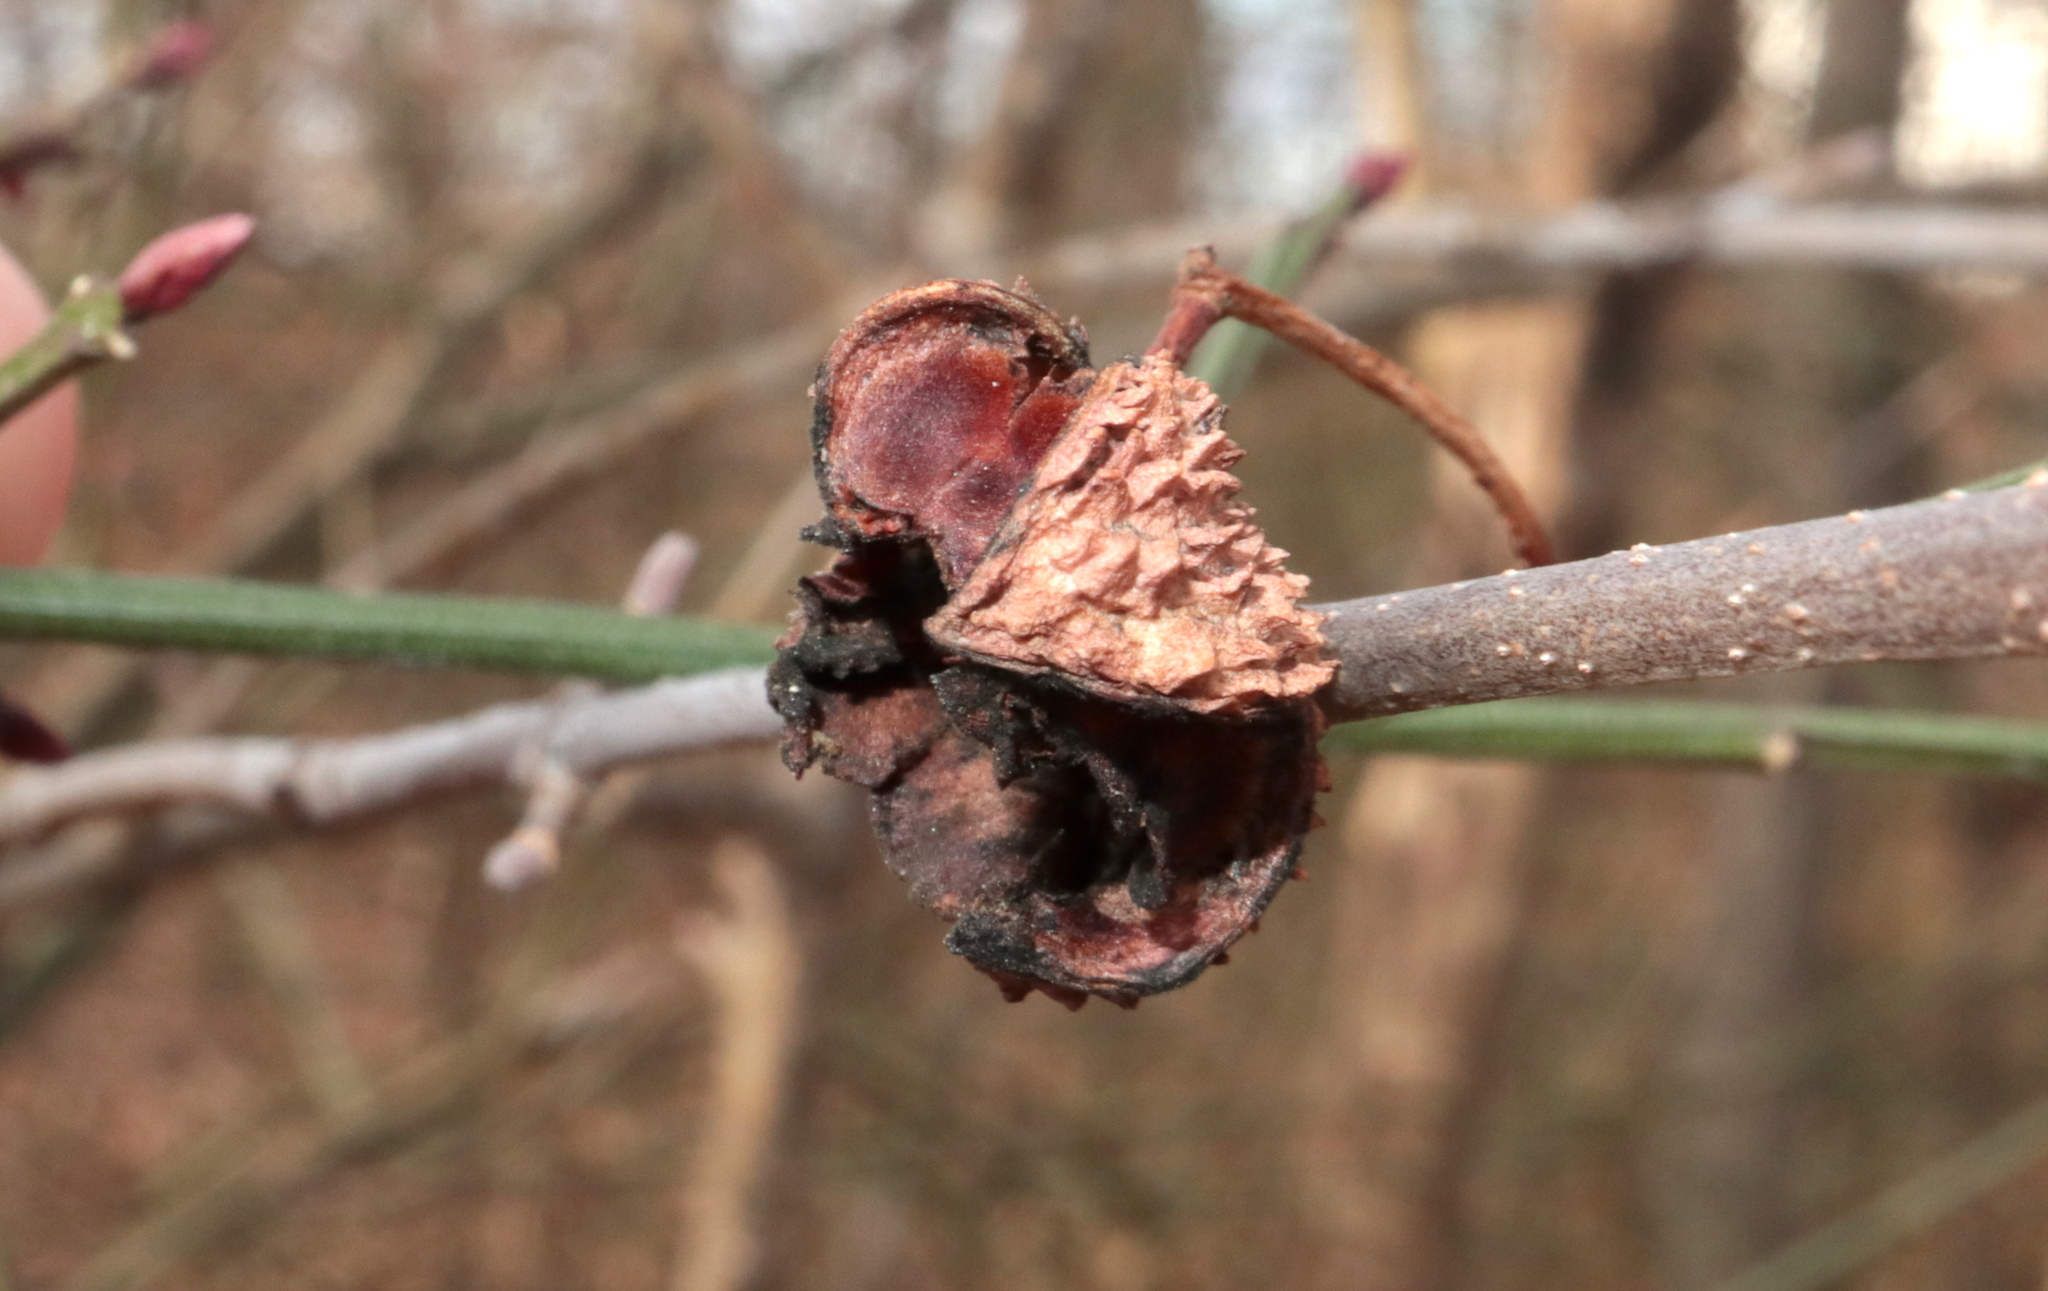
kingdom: Plantae
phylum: Tracheophyta
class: Magnoliopsida
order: Celastrales
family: Celastraceae
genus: Euonymus
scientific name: Euonymus americanus
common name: Bursting-heart
